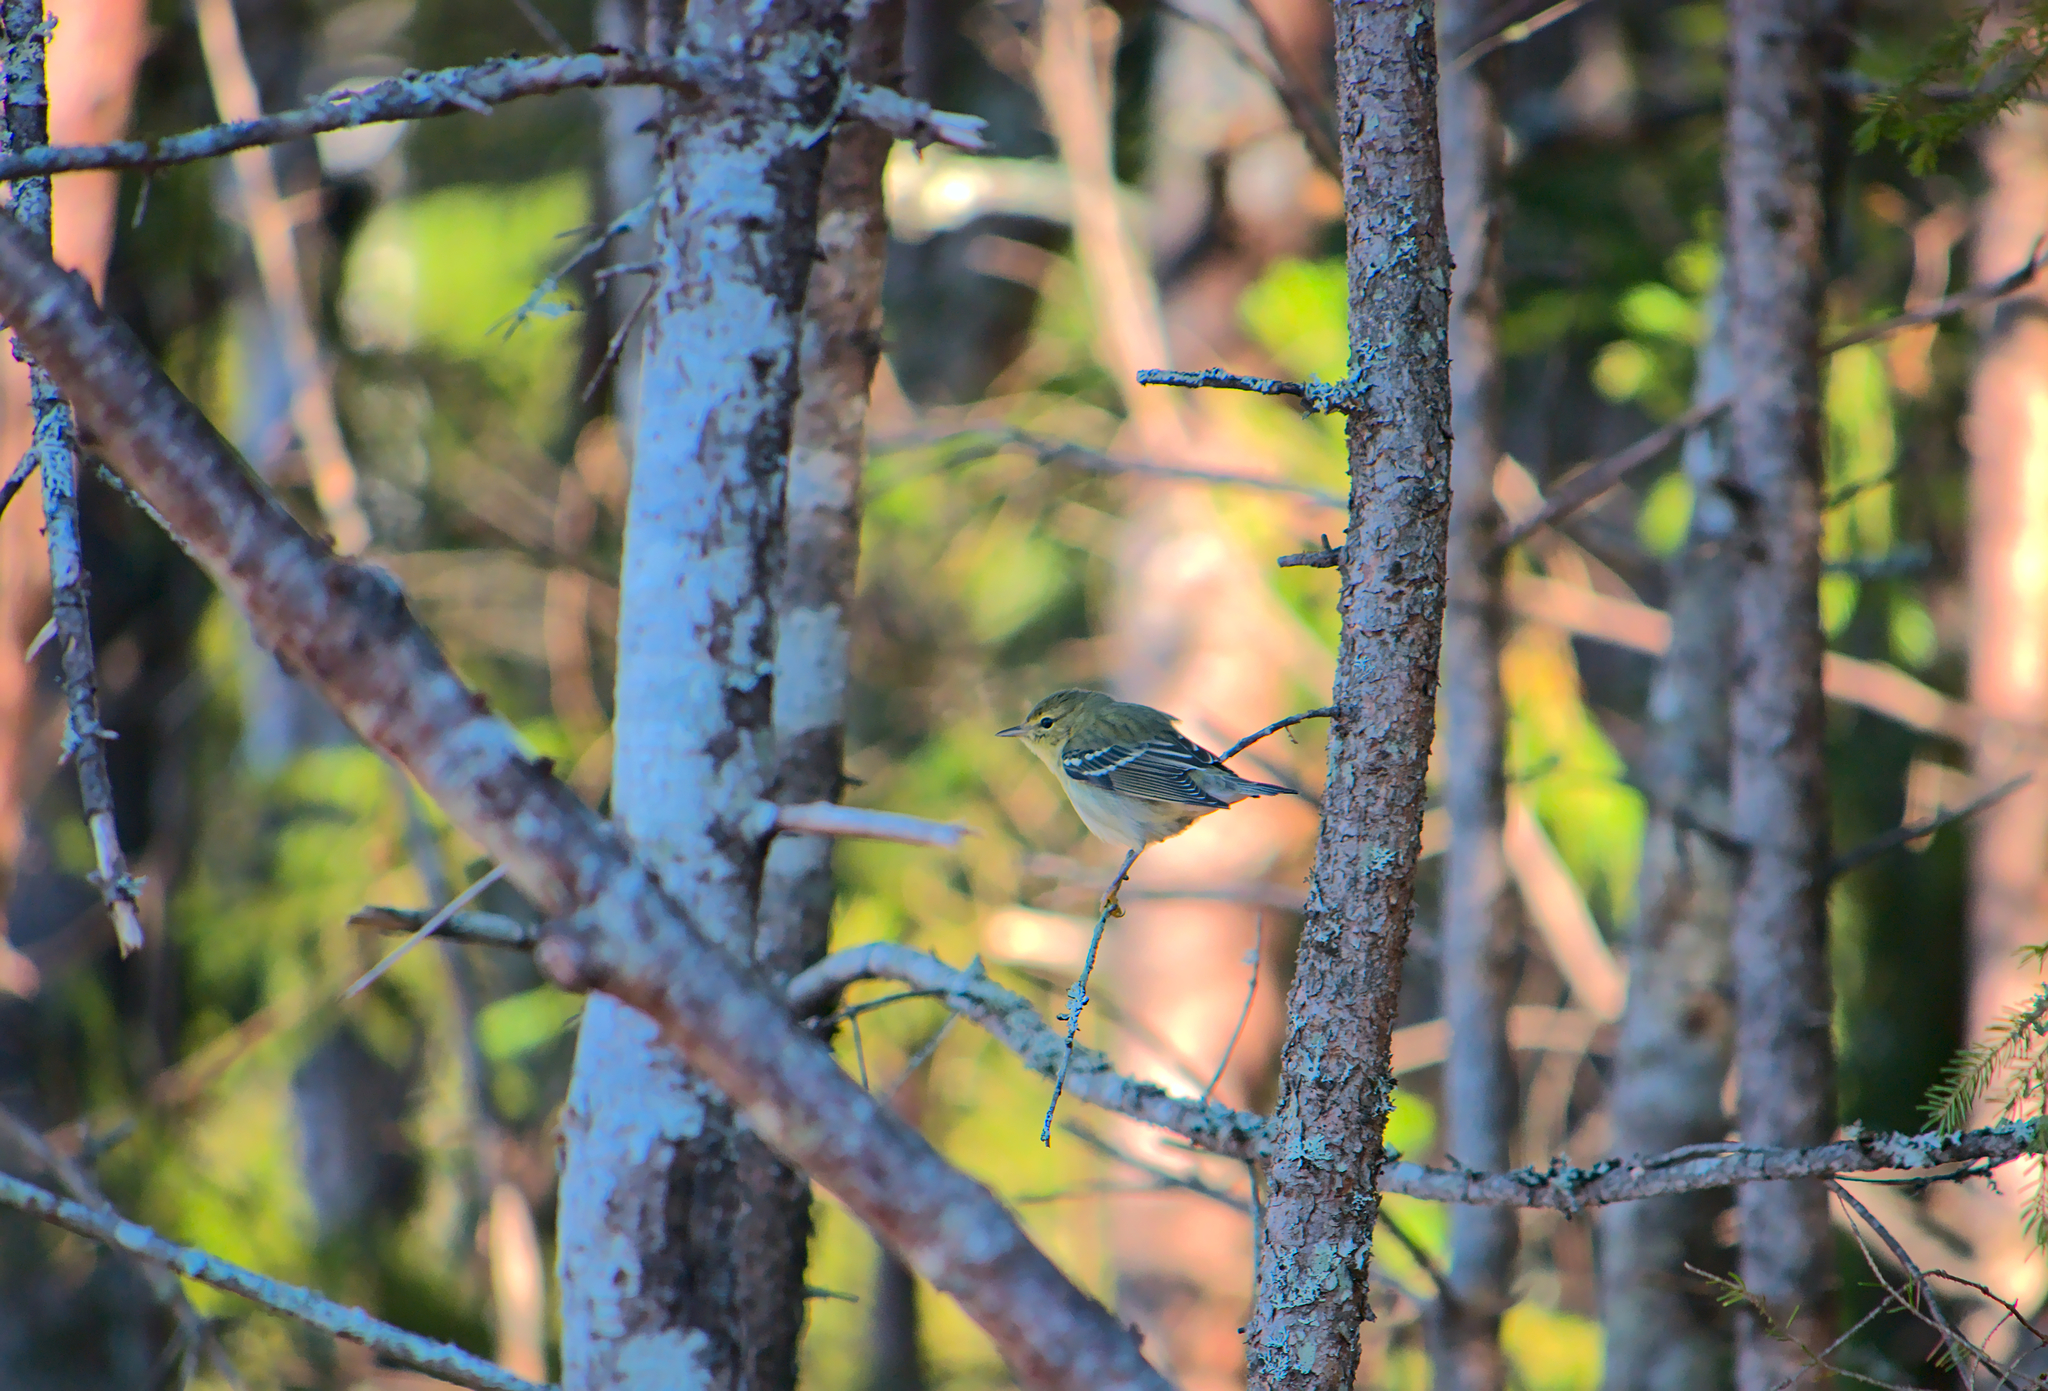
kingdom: Animalia
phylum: Chordata
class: Aves
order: Passeriformes
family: Parulidae
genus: Setophaga
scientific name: Setophaga coronata
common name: Myrtle warbler
